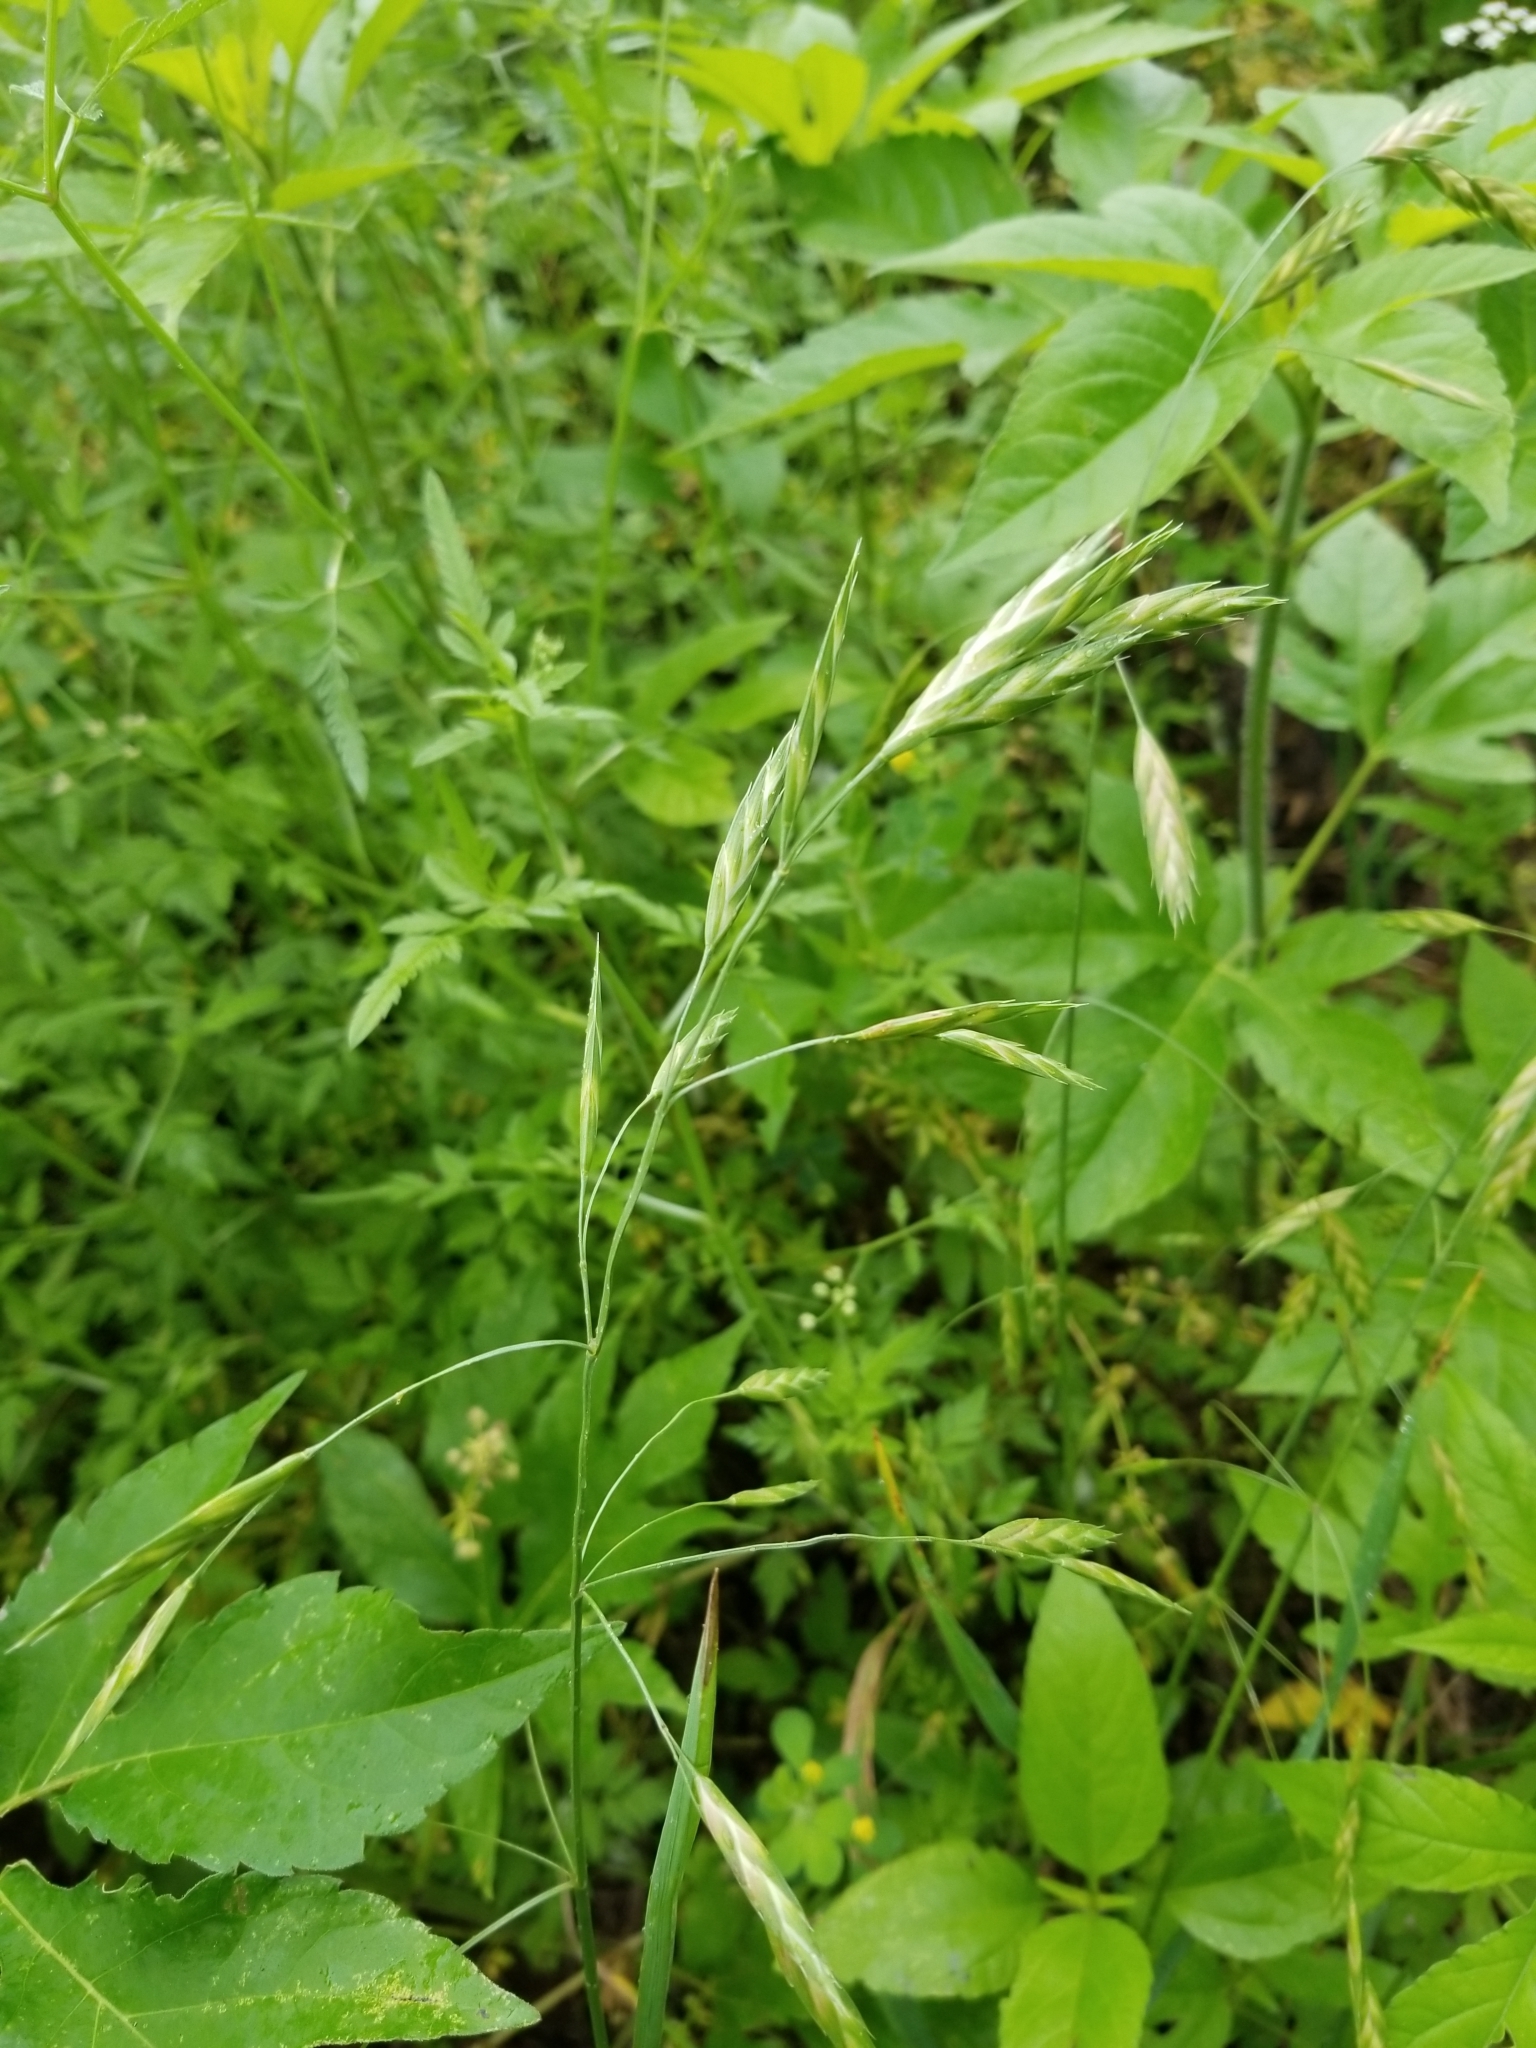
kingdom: Plantae
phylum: Tracheophyta
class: Liliopsida
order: Poales
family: Poaceae
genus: Bromus
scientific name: Bromus catharticus
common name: Rescuegrass
